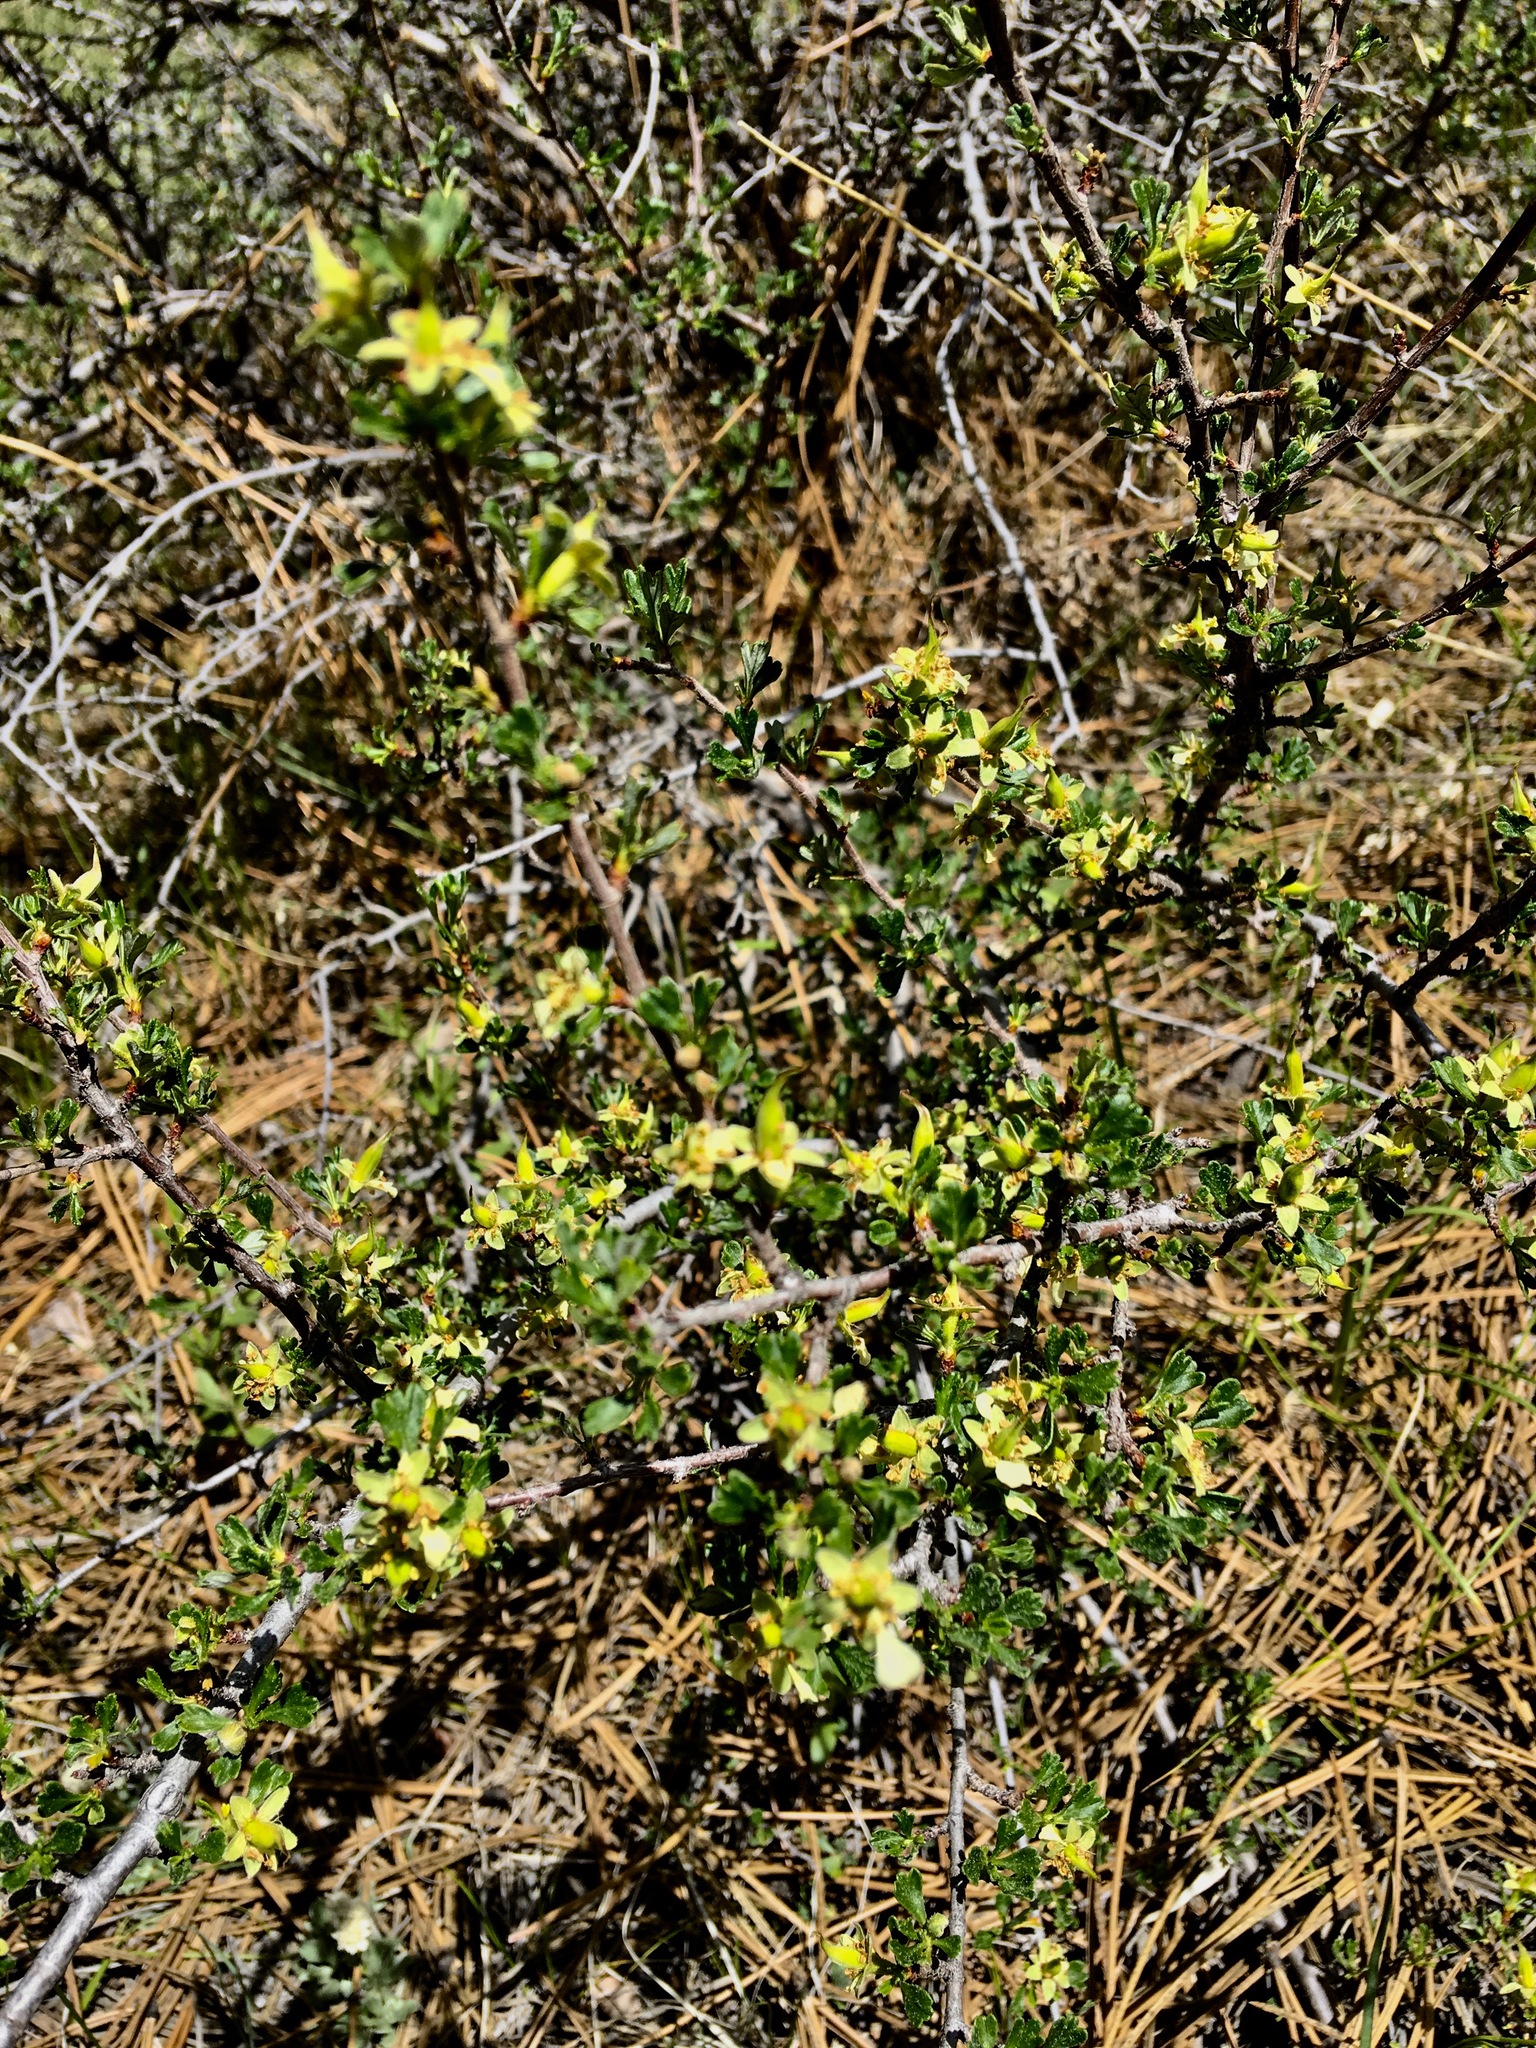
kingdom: Plantae
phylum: Tracheophyta
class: Magnoliopsida
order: Rosales
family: Rosaceae
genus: Purshia
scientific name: Purshia tridentata
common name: Antelope bitterbrush
